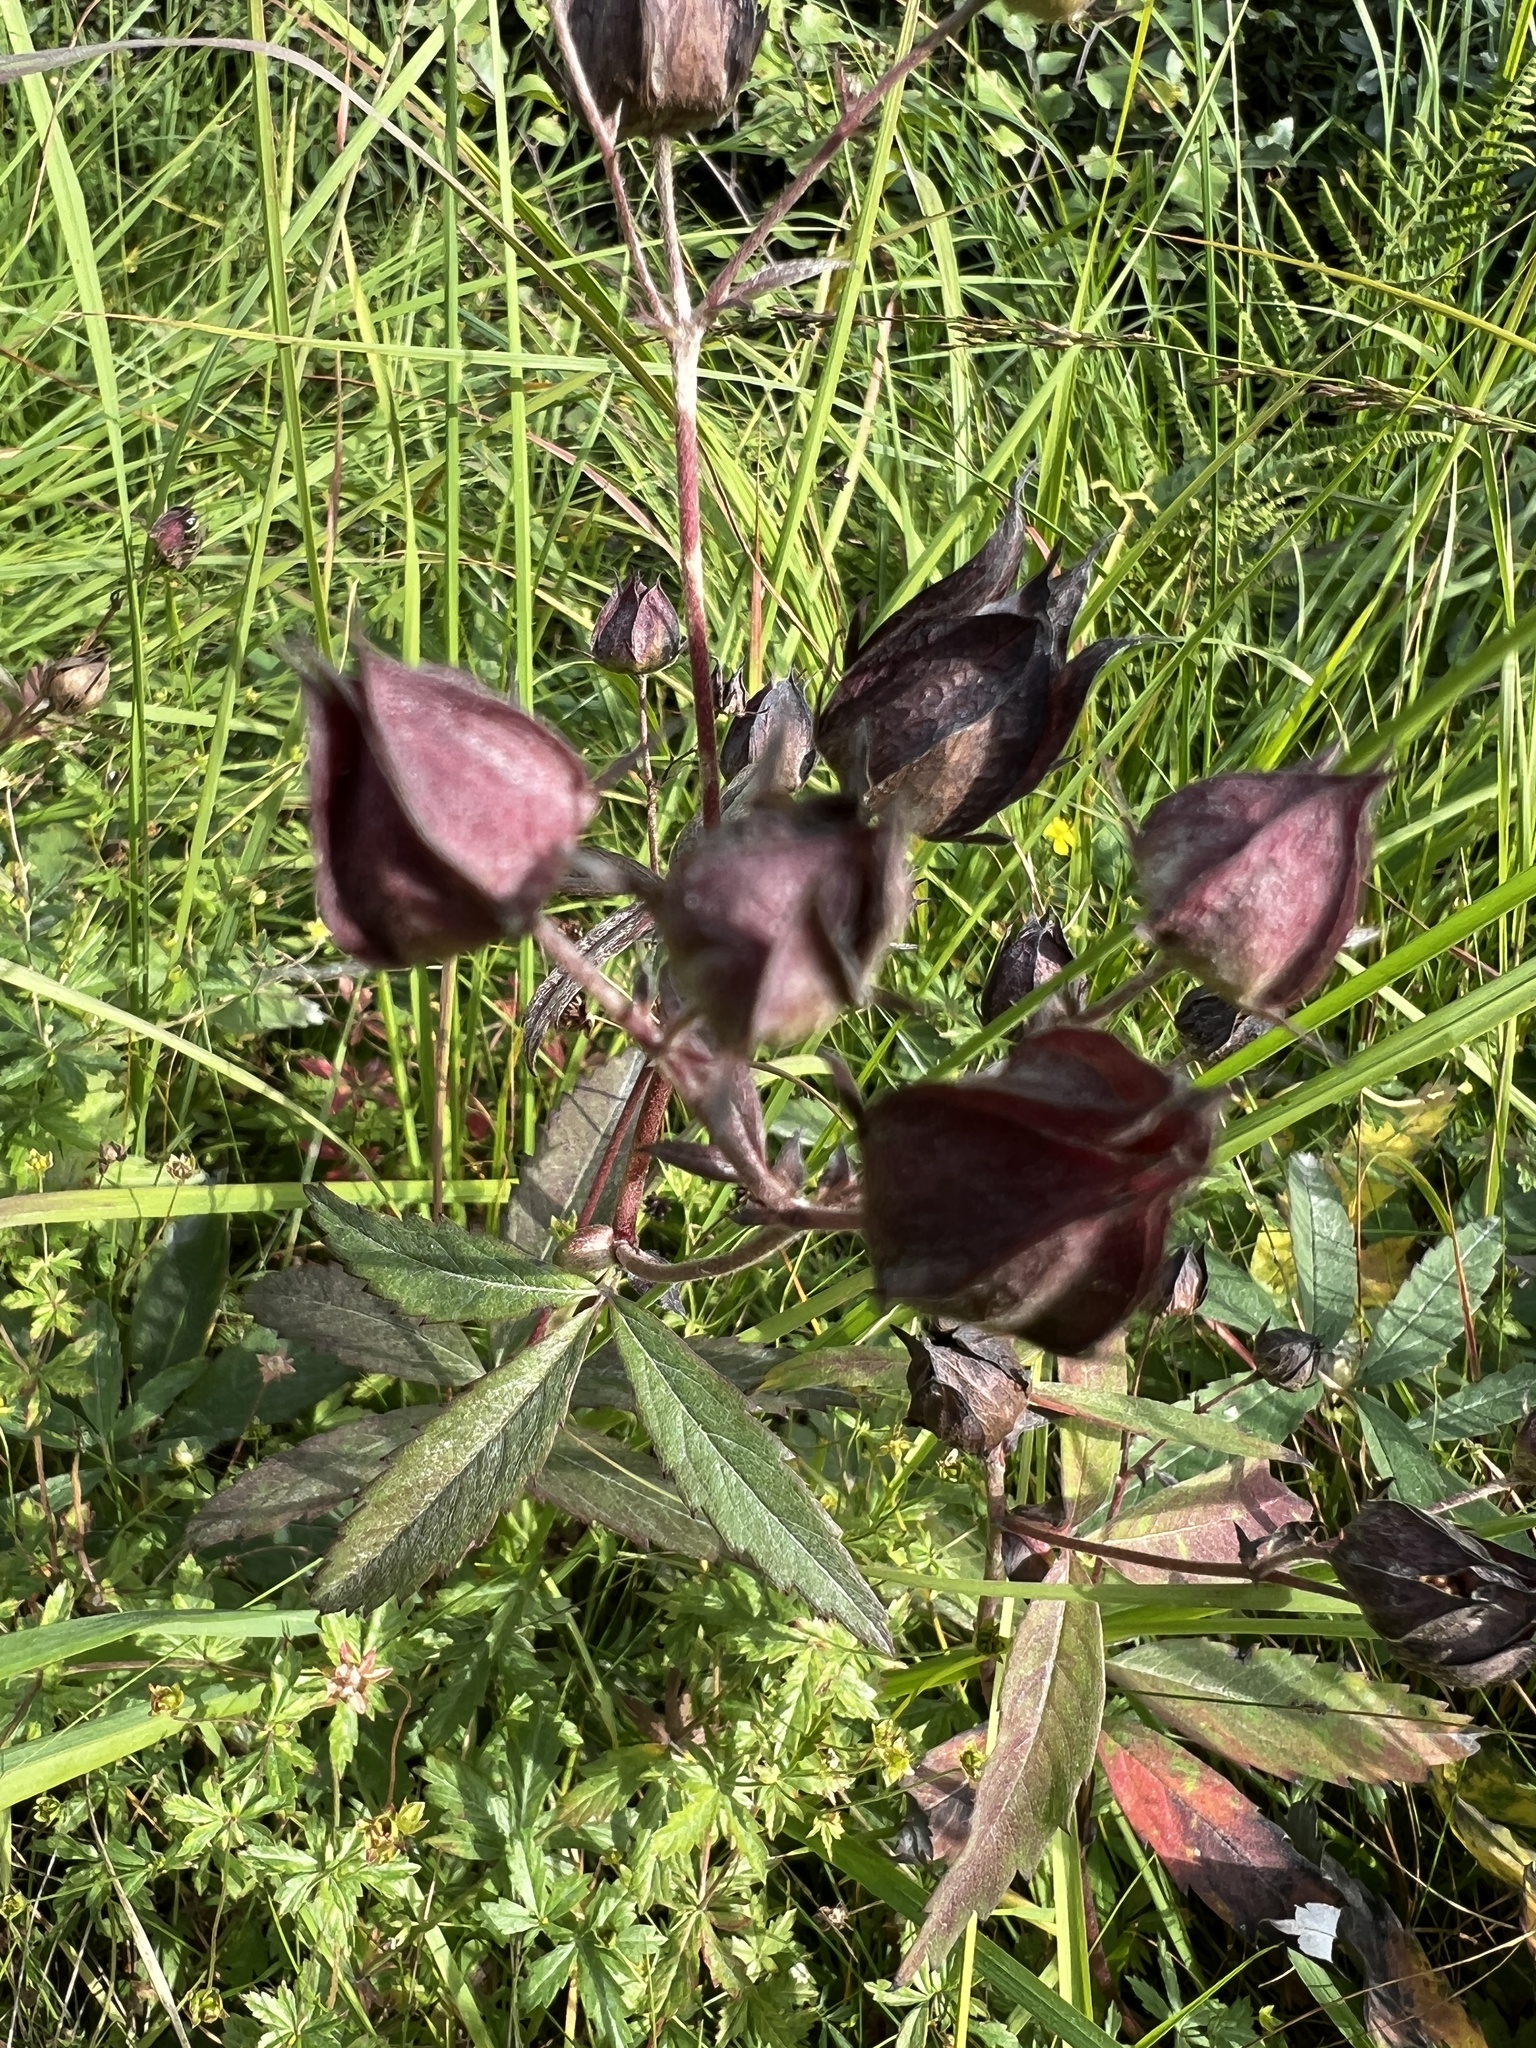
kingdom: Plantae
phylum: Tracheophyta
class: Magnoliopsida
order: Rosales
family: Rosaceae
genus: Comarum
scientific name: Comarum palustre
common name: Marsh cinquefoil
